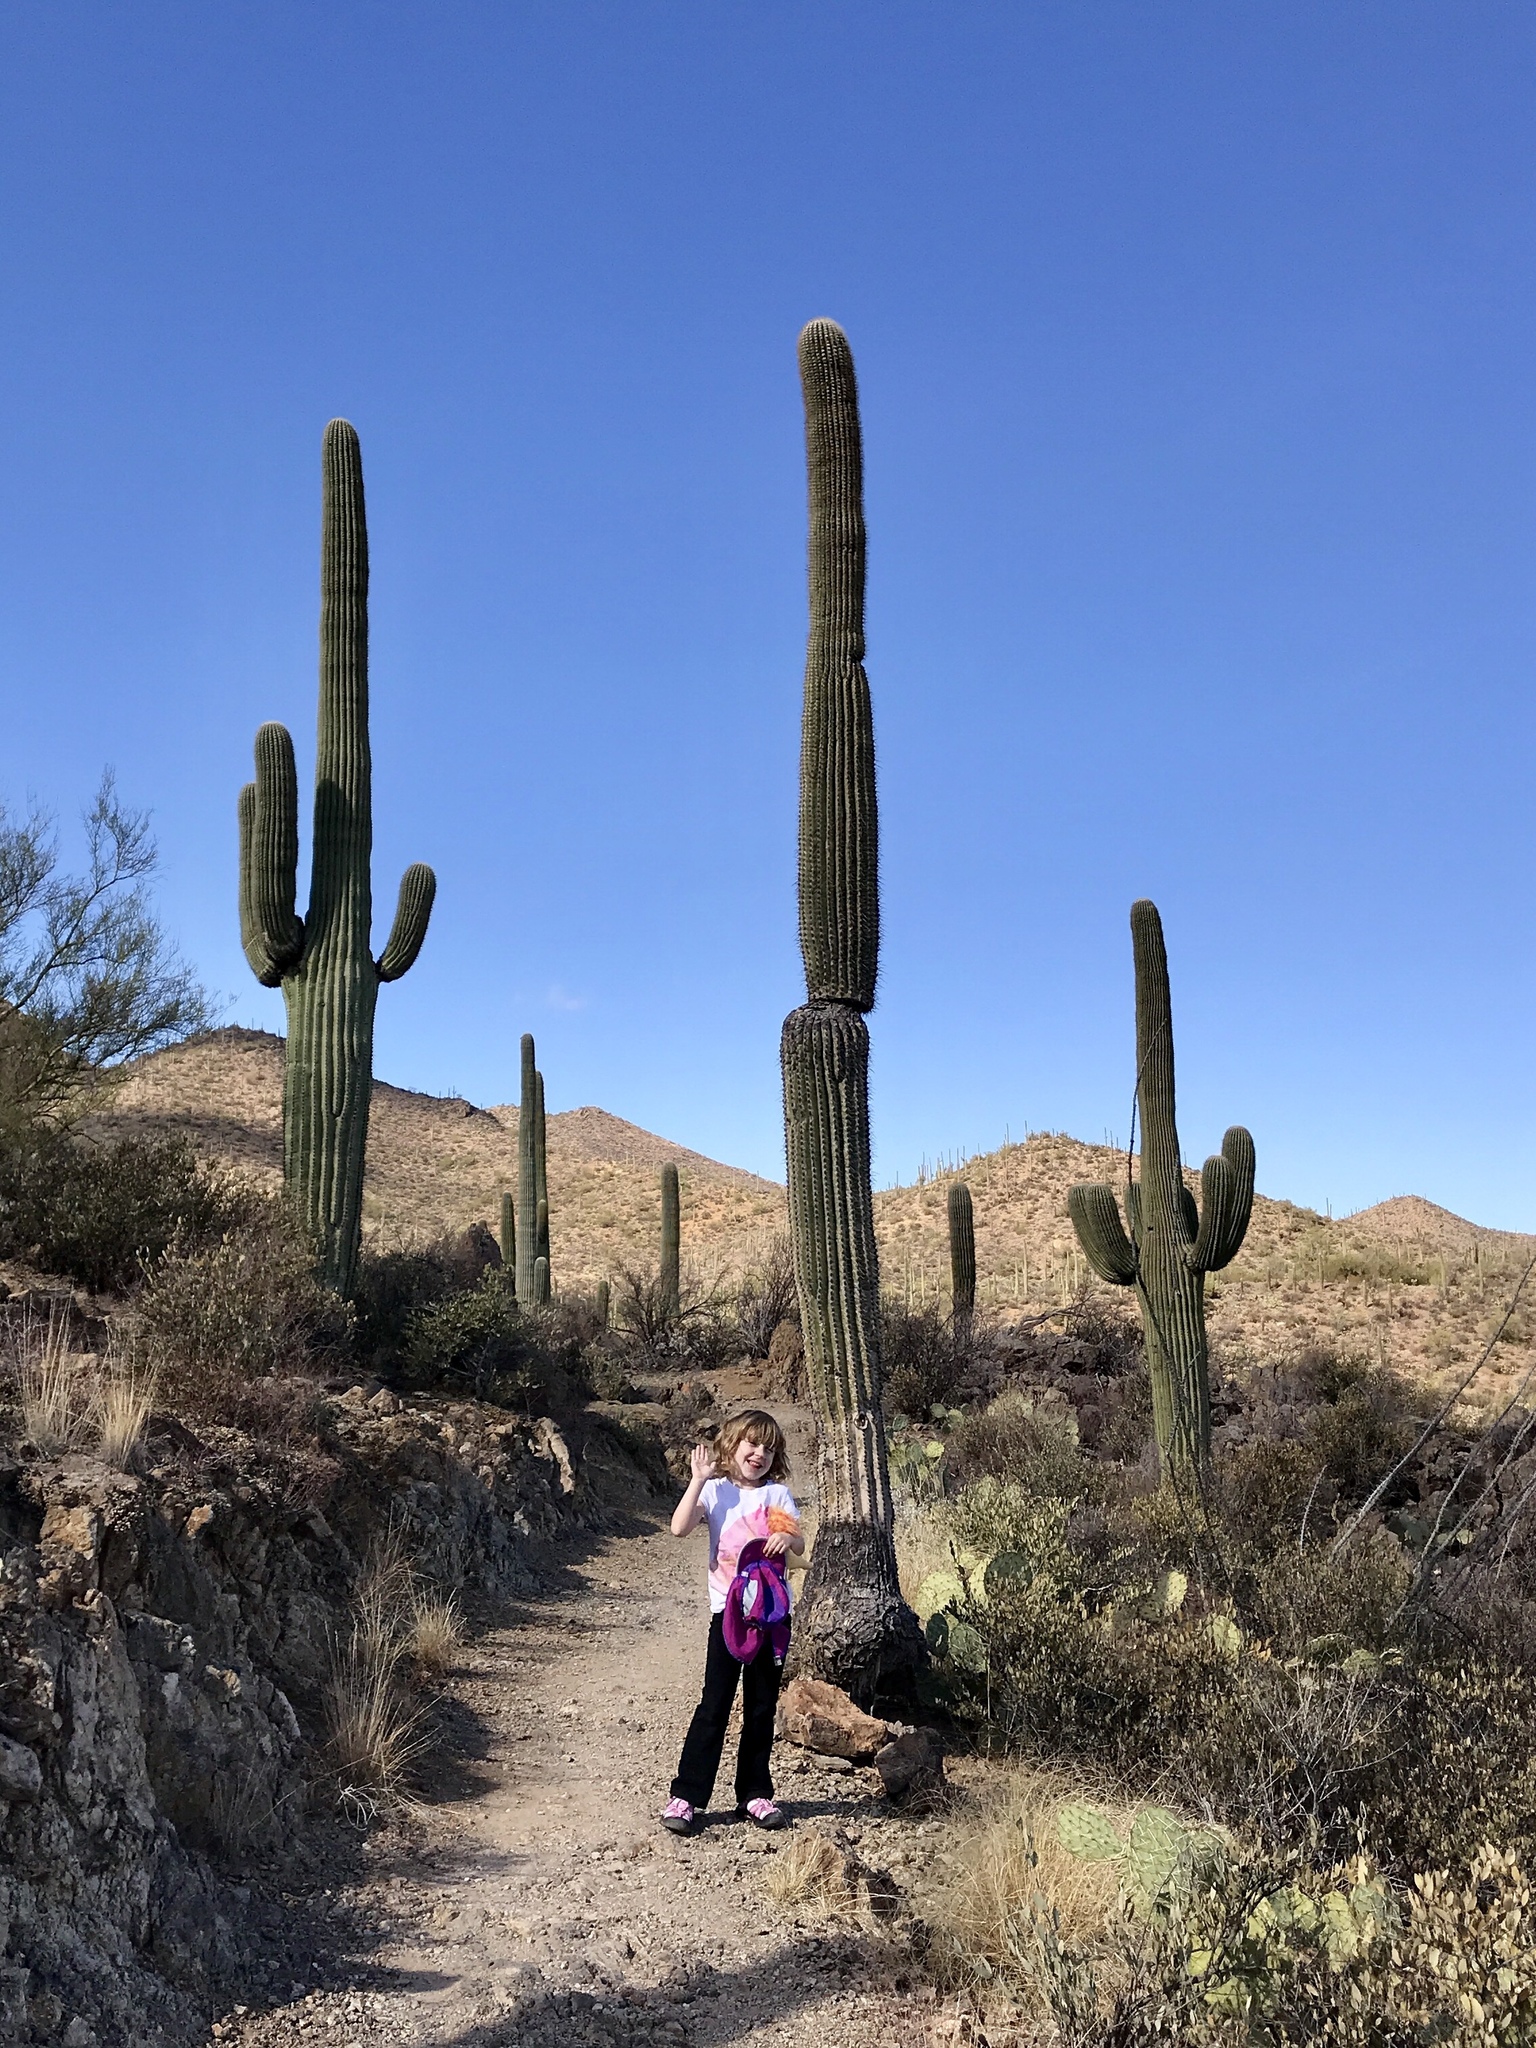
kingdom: Plantae
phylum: Tracheophyta
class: Magnoliopsida
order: Caryophyllales
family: Cactaceae
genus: Carnegiea
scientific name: Carnegiea gigantea
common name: Saguaro
